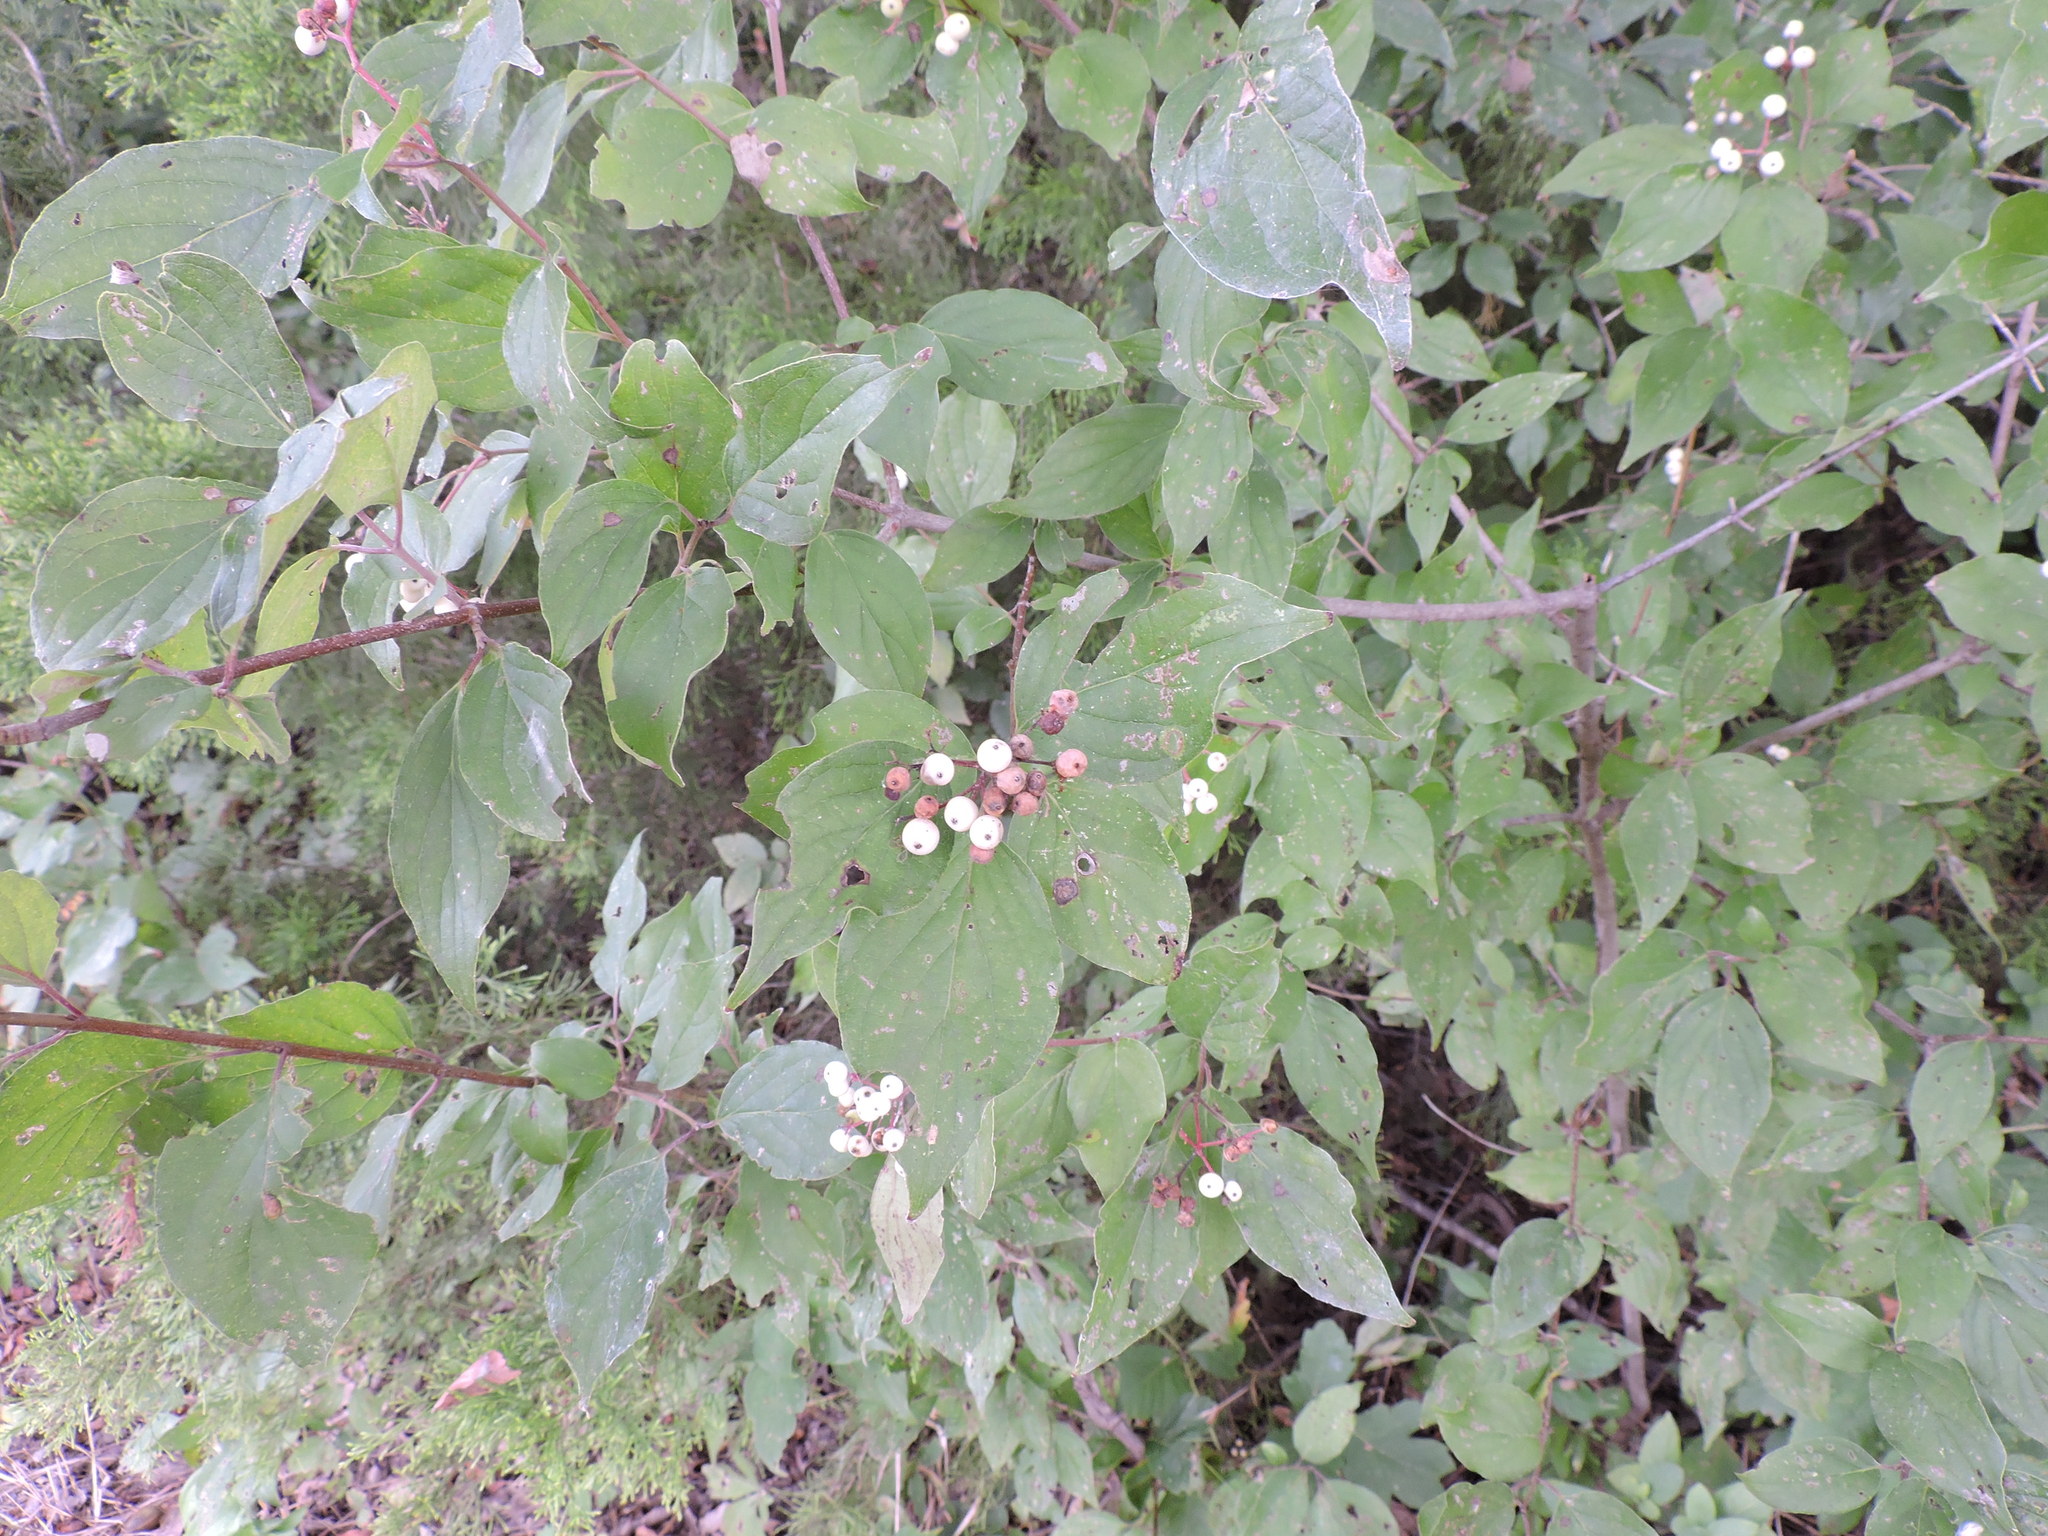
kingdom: Plantae
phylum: Tracheophyta
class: Magnoliopsida
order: Cornales
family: Cornaceae
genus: Cornus
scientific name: Cornus drummondii
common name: Rough-leaf dogwood
